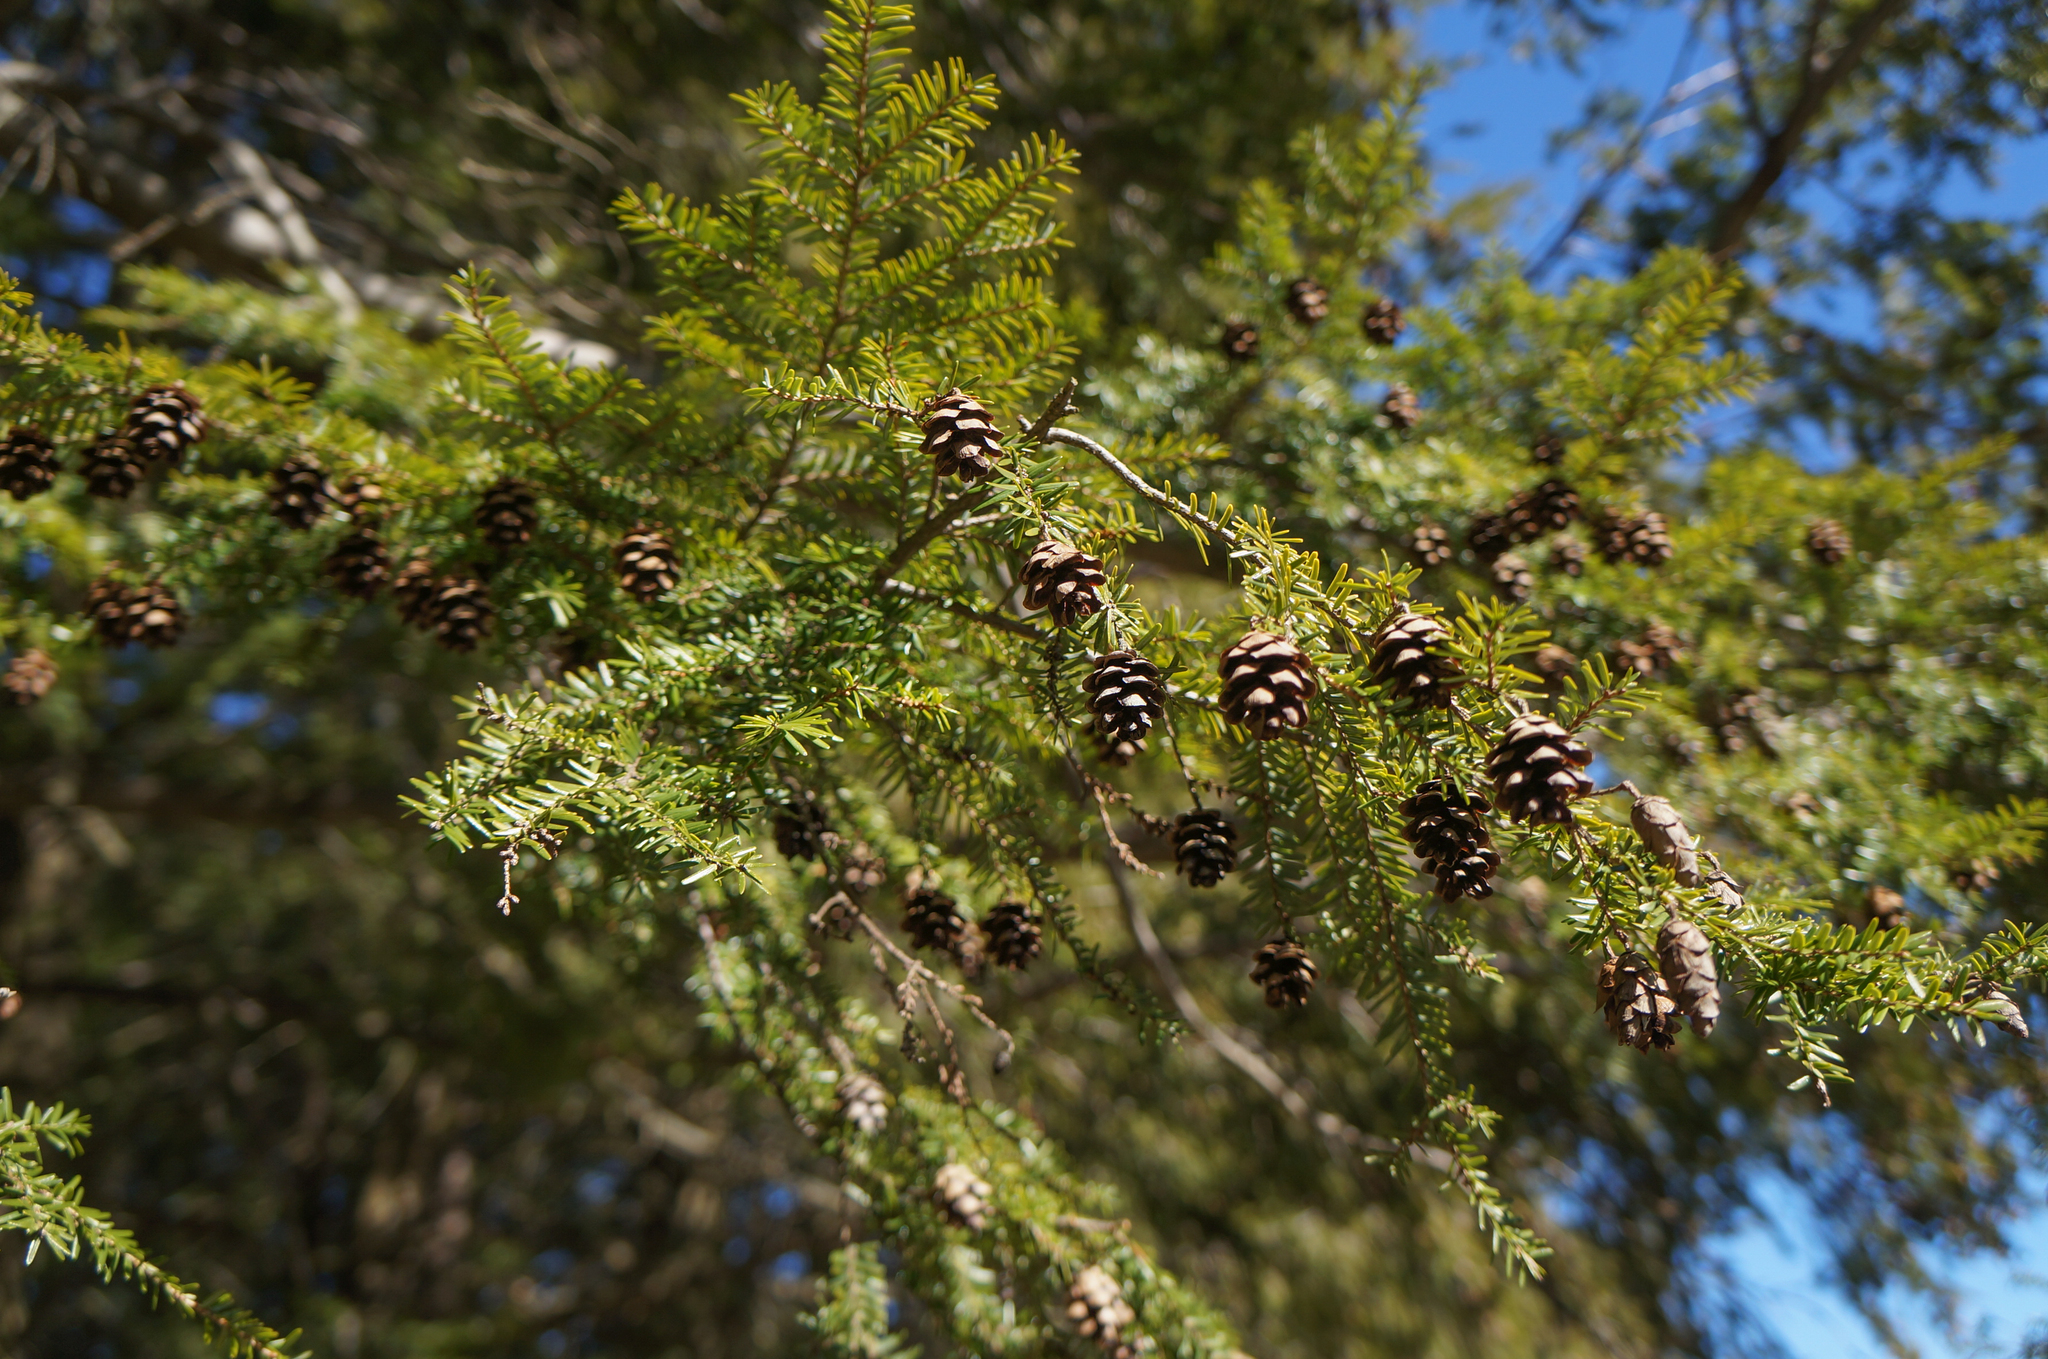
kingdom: Plantae
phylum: Tracheophyta
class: Pinopsida
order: Pinales
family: Pinaceae
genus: Tsuga
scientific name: Tsuga canadensis
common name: Eastern hemlock
